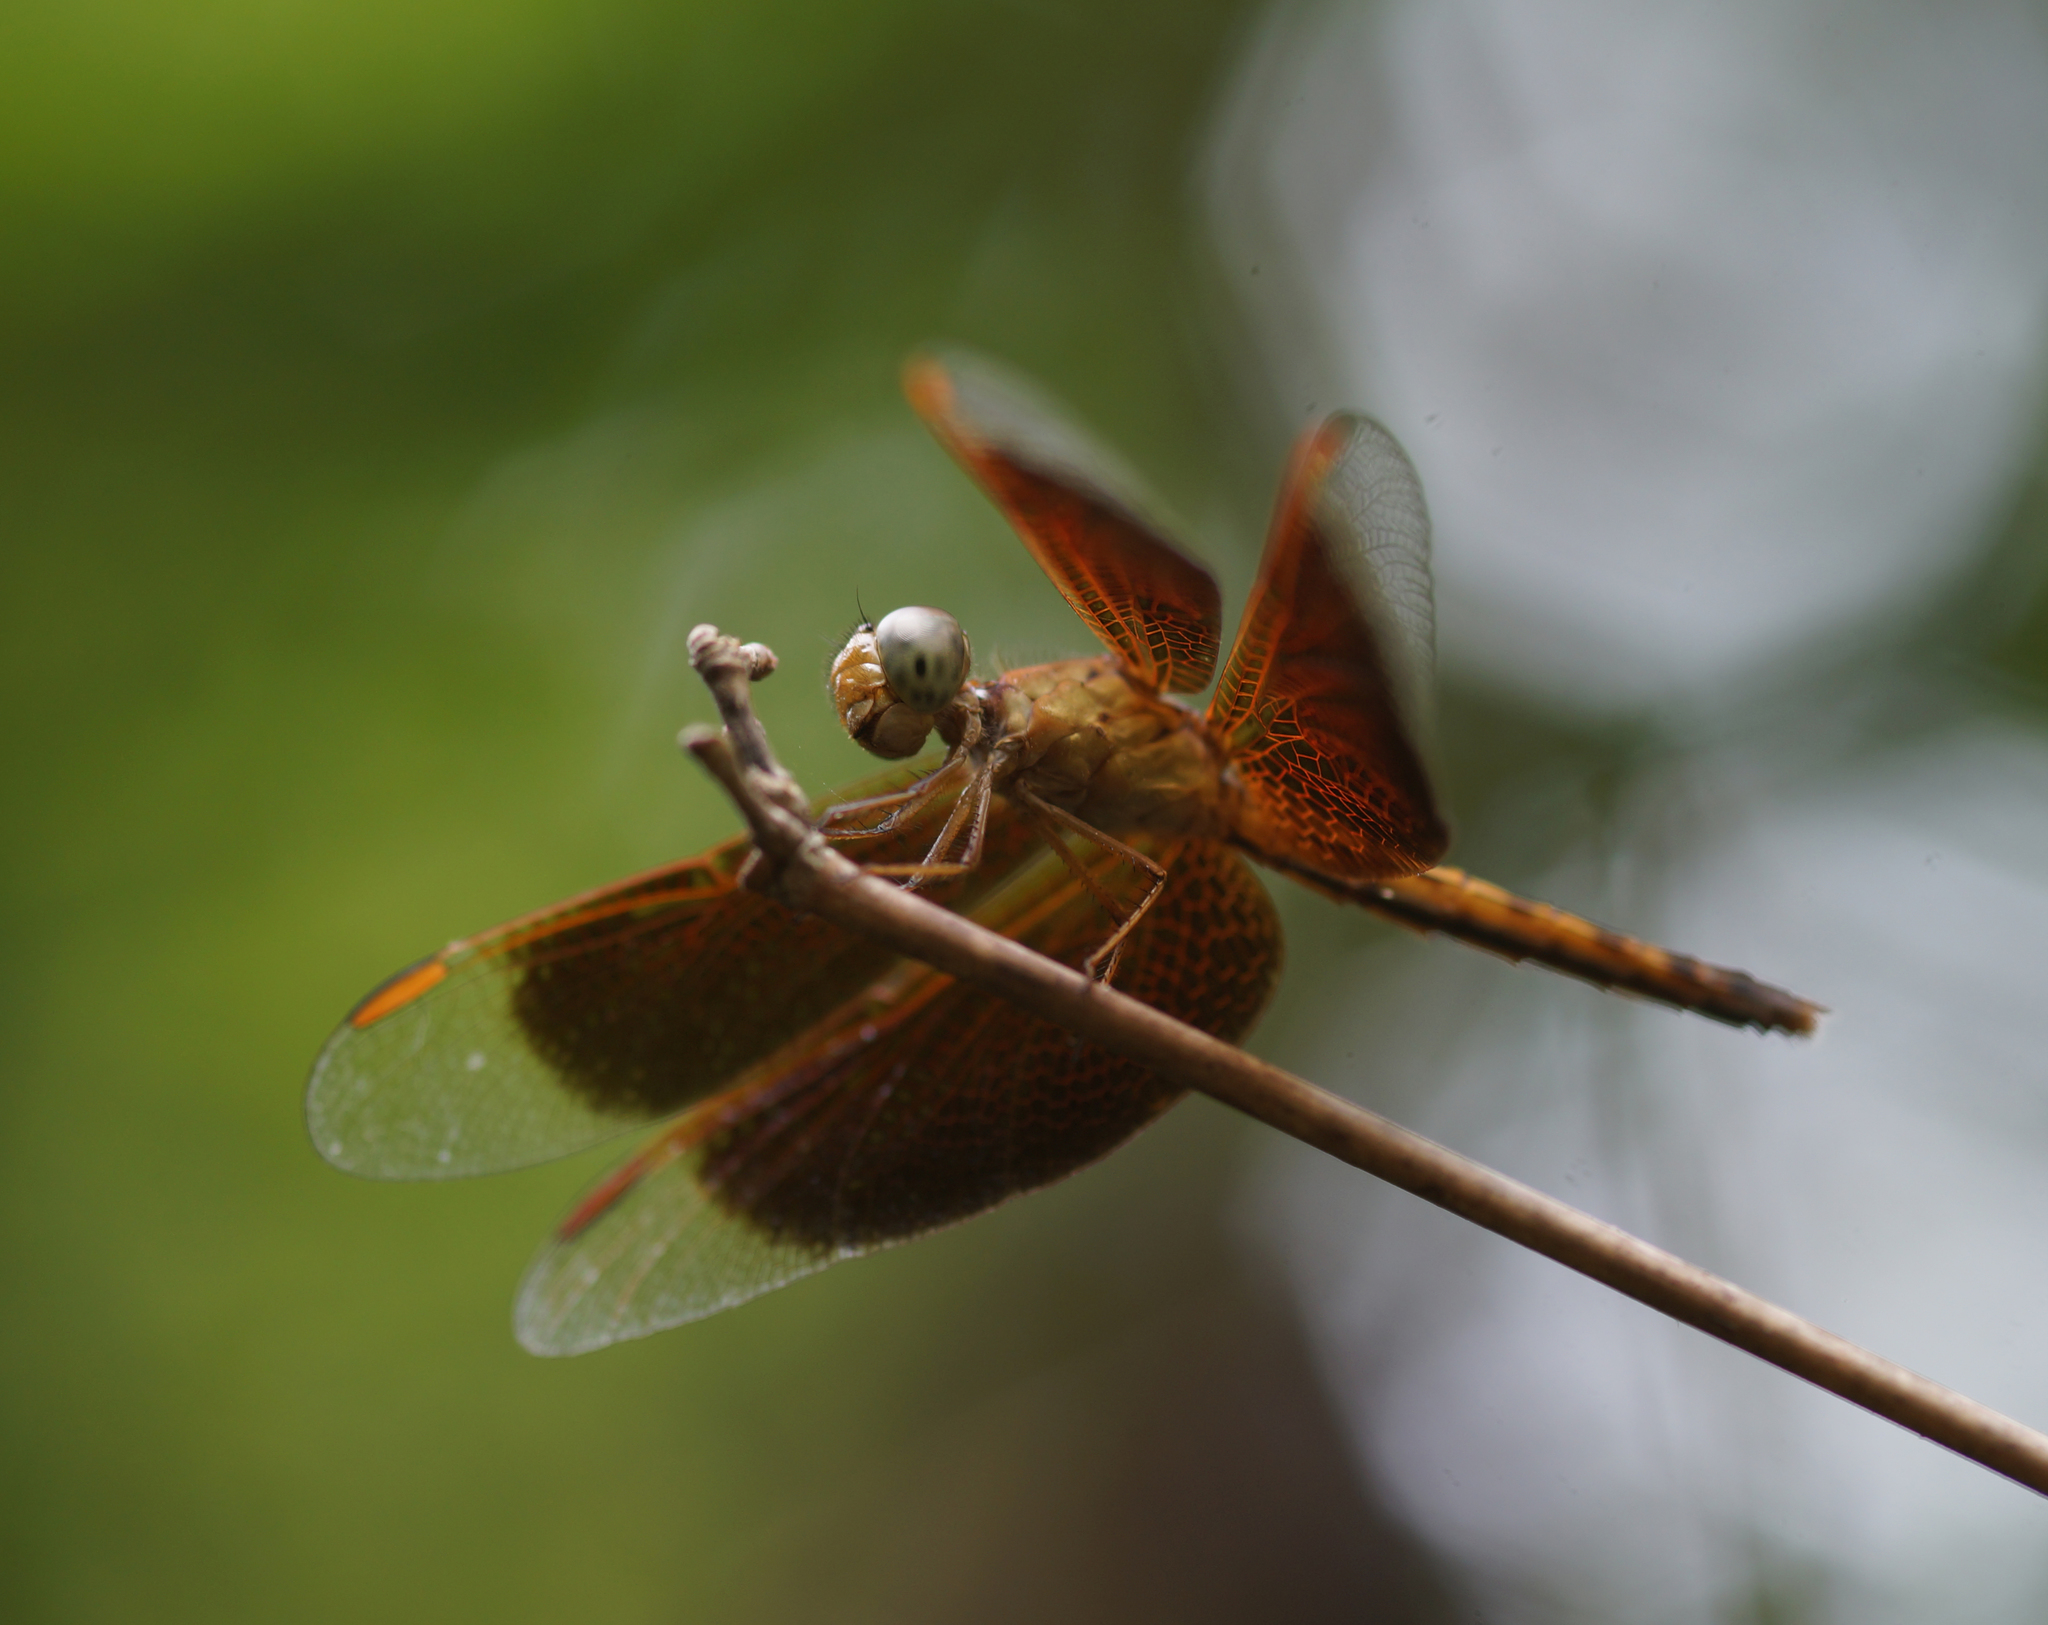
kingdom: Animalia
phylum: Arthropoda
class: Insecta
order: Odonata
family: Libellulidae
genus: Neurothemis
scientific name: Neurothemis fluctuans
